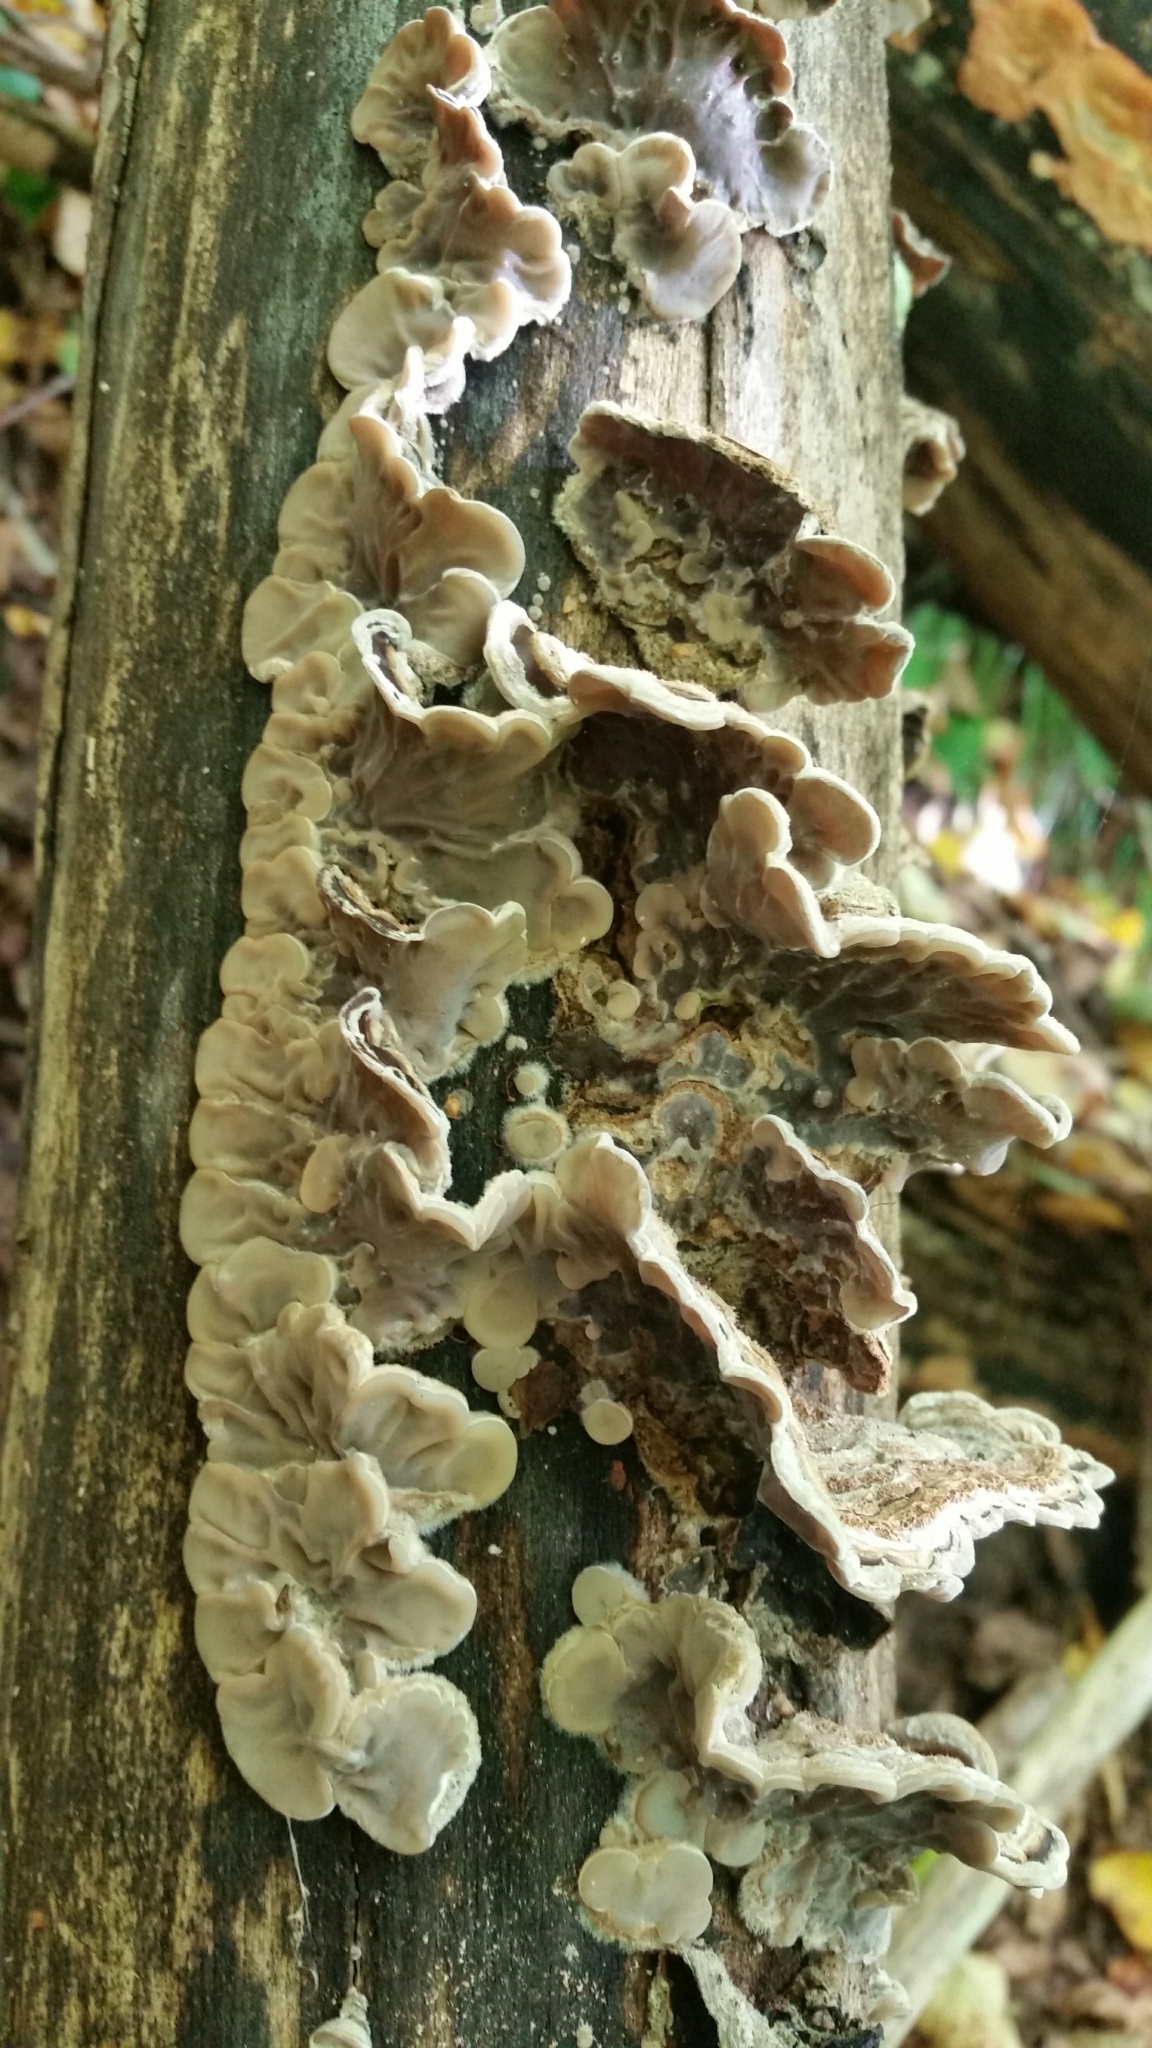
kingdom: Fungi
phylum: Basidiomycota
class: Agaricomycetes
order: Auriculariales
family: Auriculariaceae
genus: Auricularia
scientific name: Auricularia mesenterica
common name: Tripe fungus
